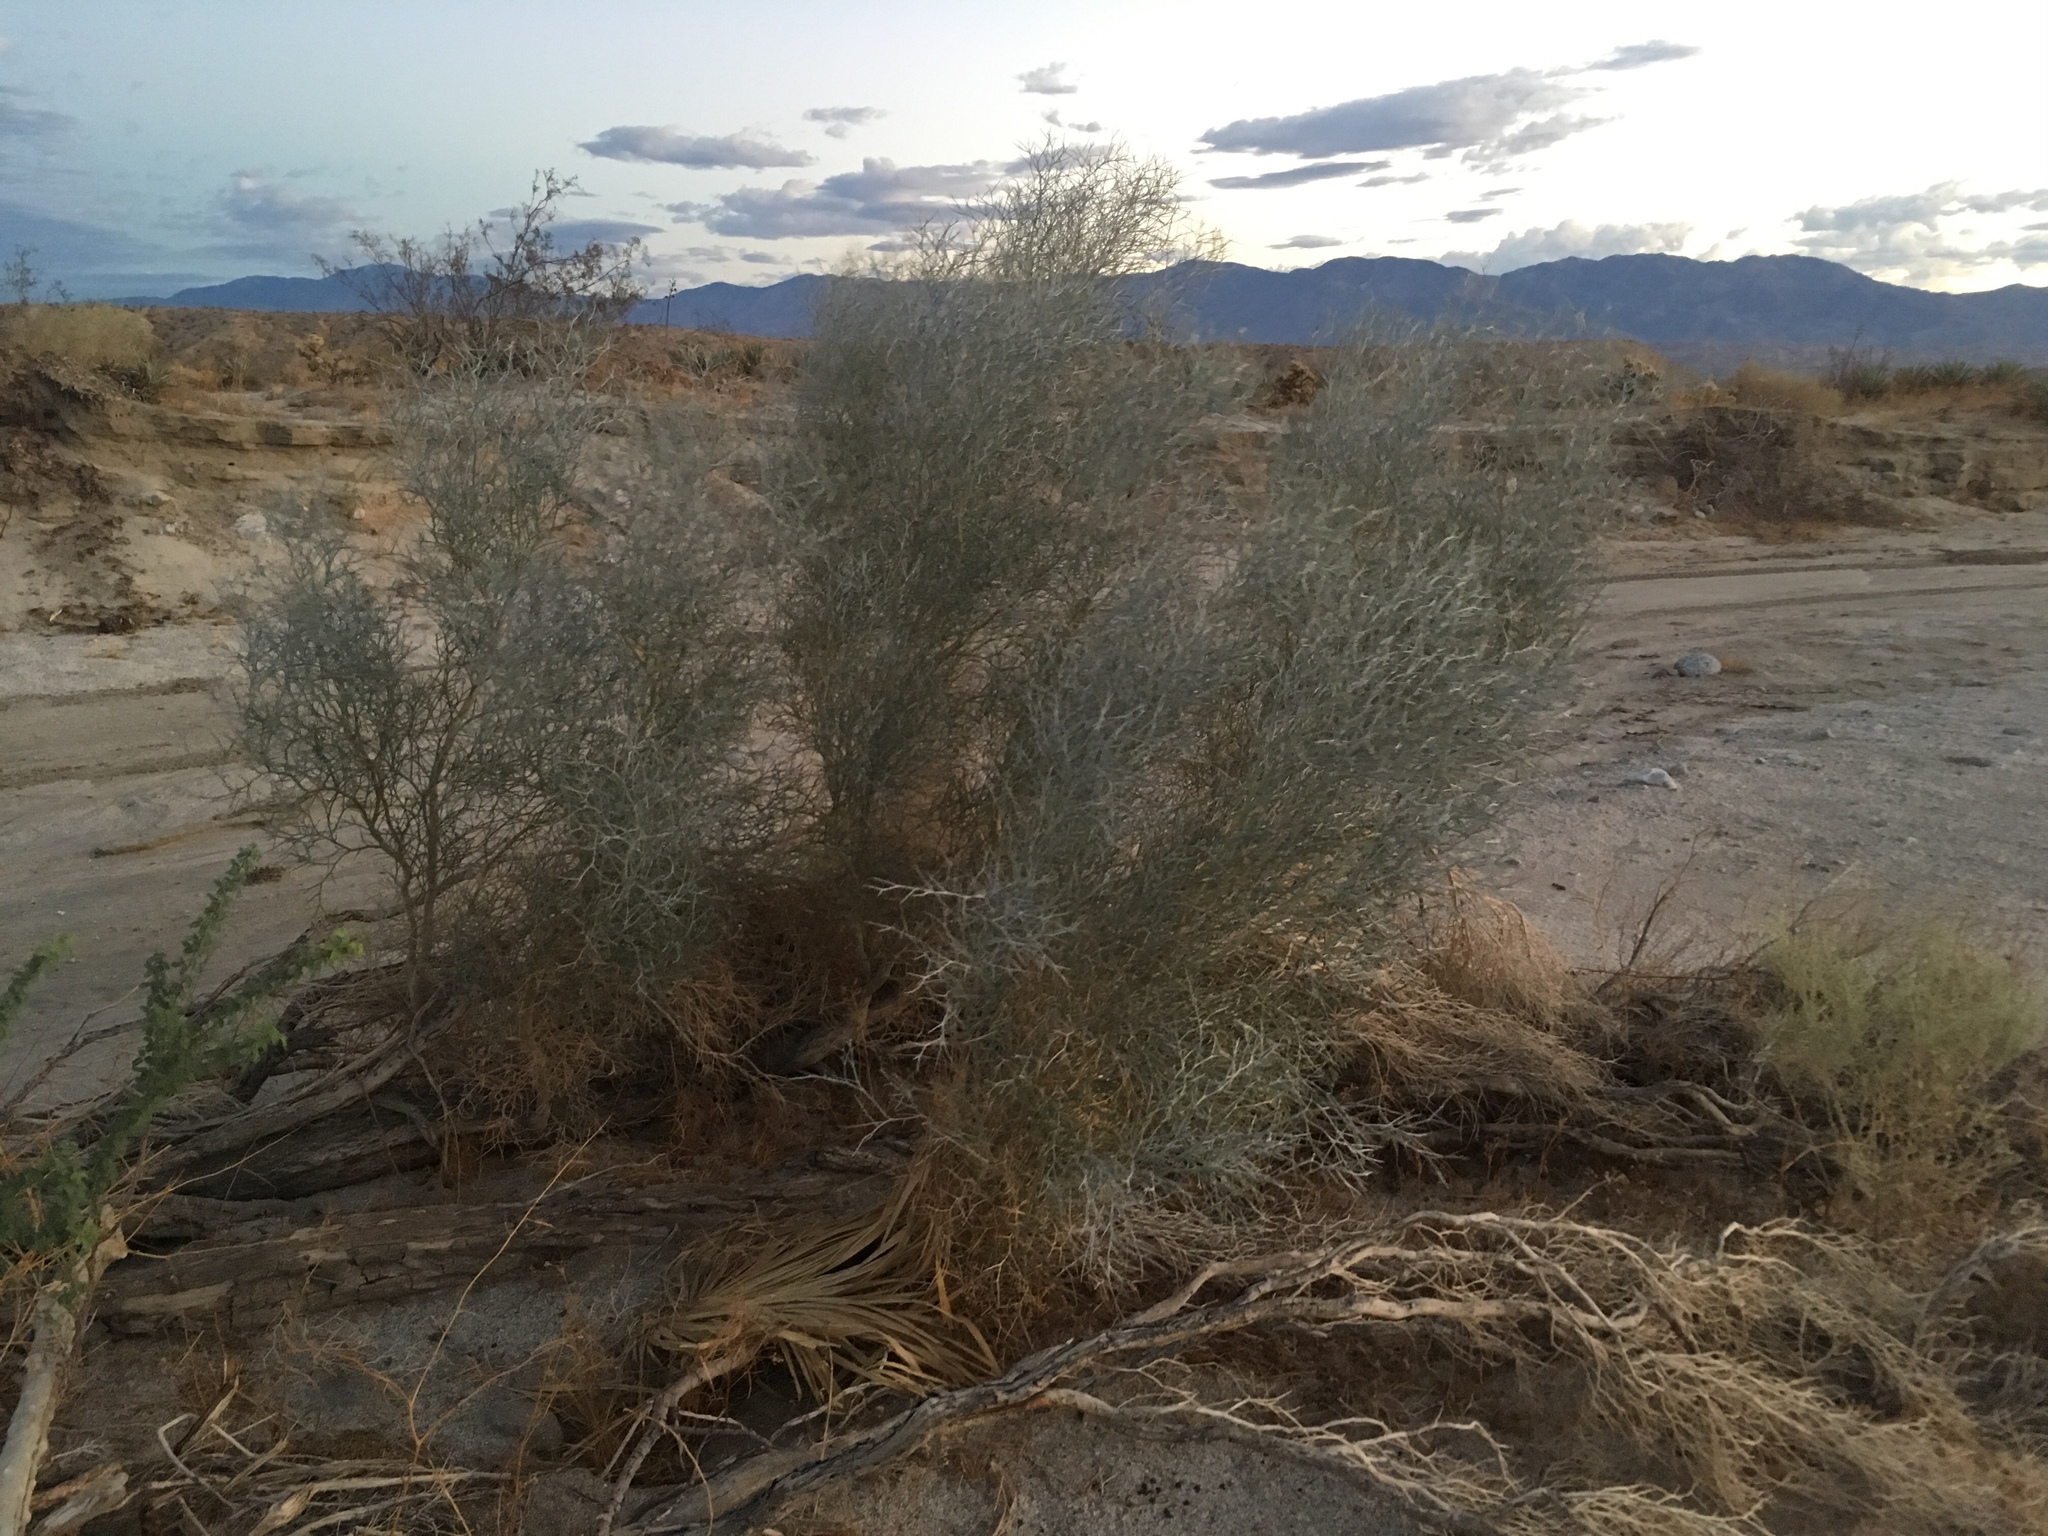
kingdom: Plantae
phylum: Tracheophyta
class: Magnoliopsida
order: Fabales
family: Fabaceae
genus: Psorothamnus
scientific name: Psorothamnus spinosus
